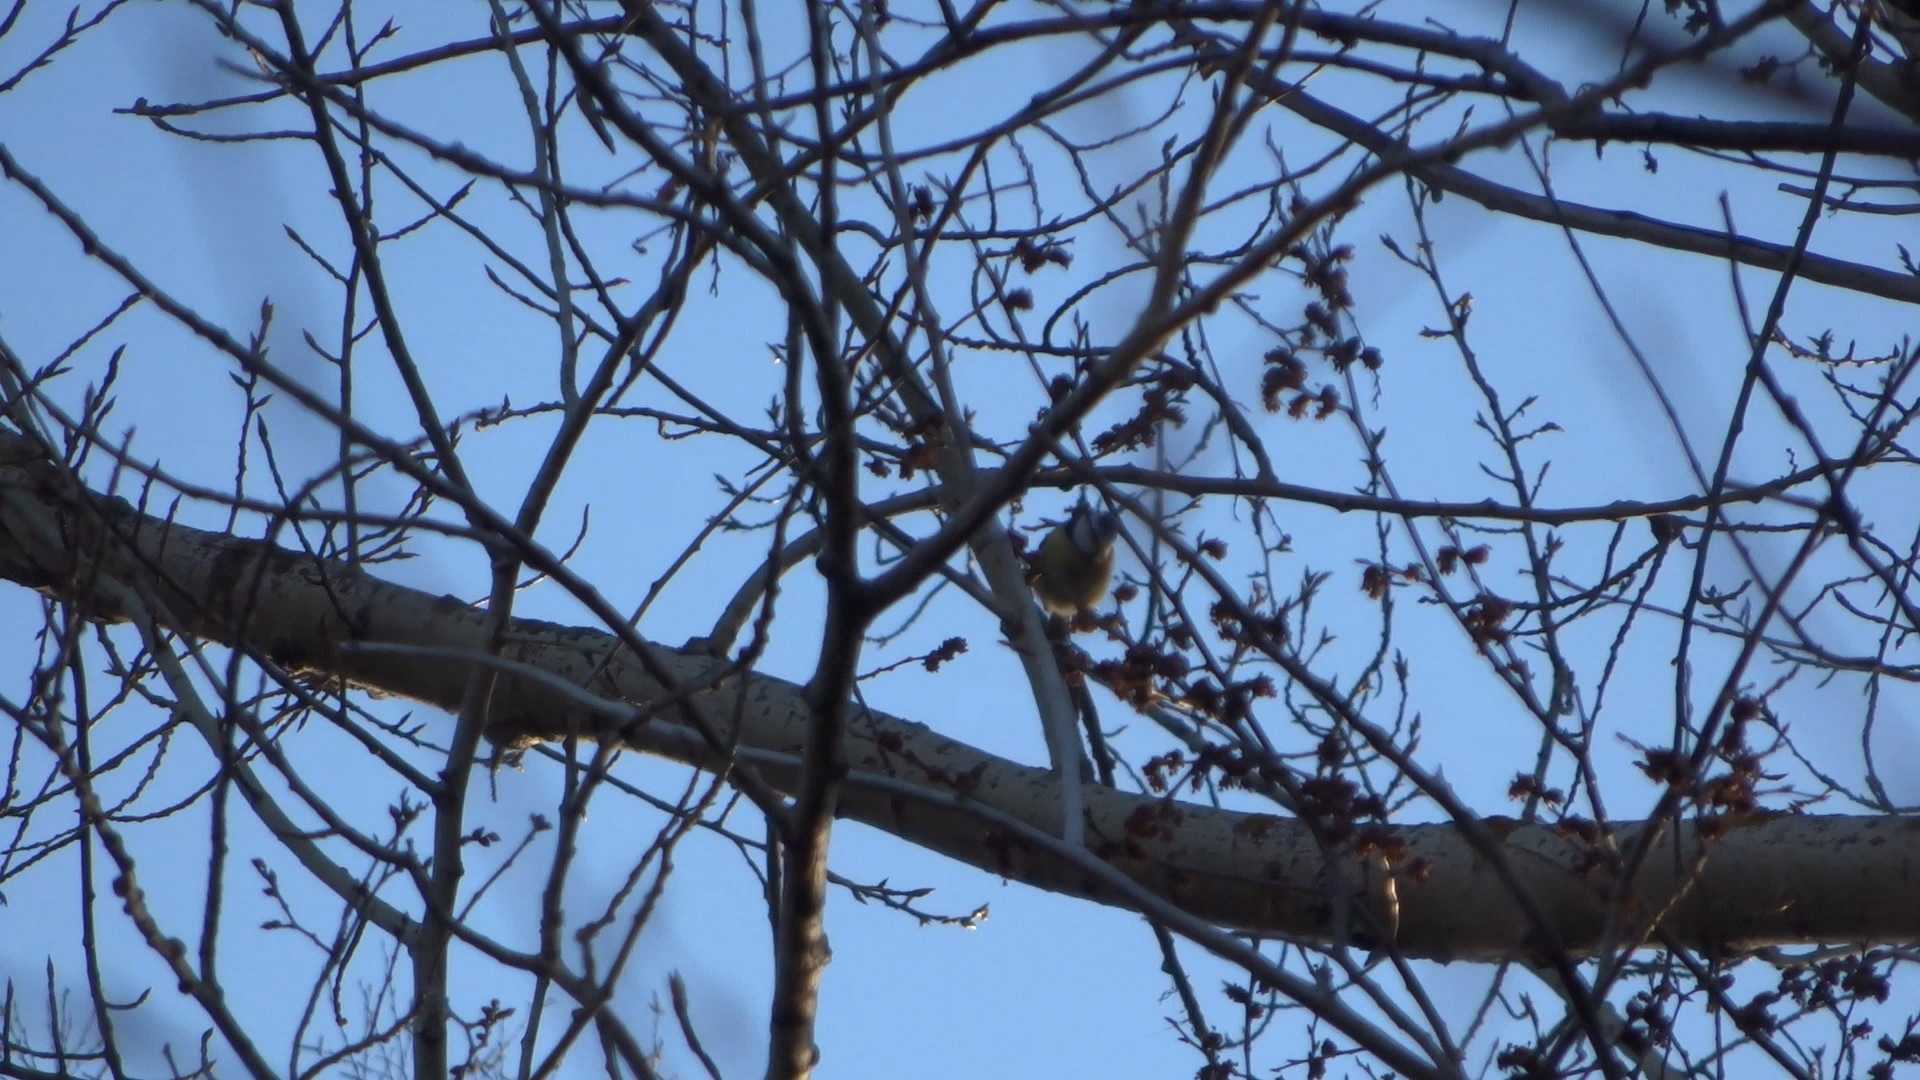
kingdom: Animalia
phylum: Chordata
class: Aves
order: Passeriformes
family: Paridae
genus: Cyanistes
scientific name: Cyanistes caeruleus
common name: Eurasian blue tit
